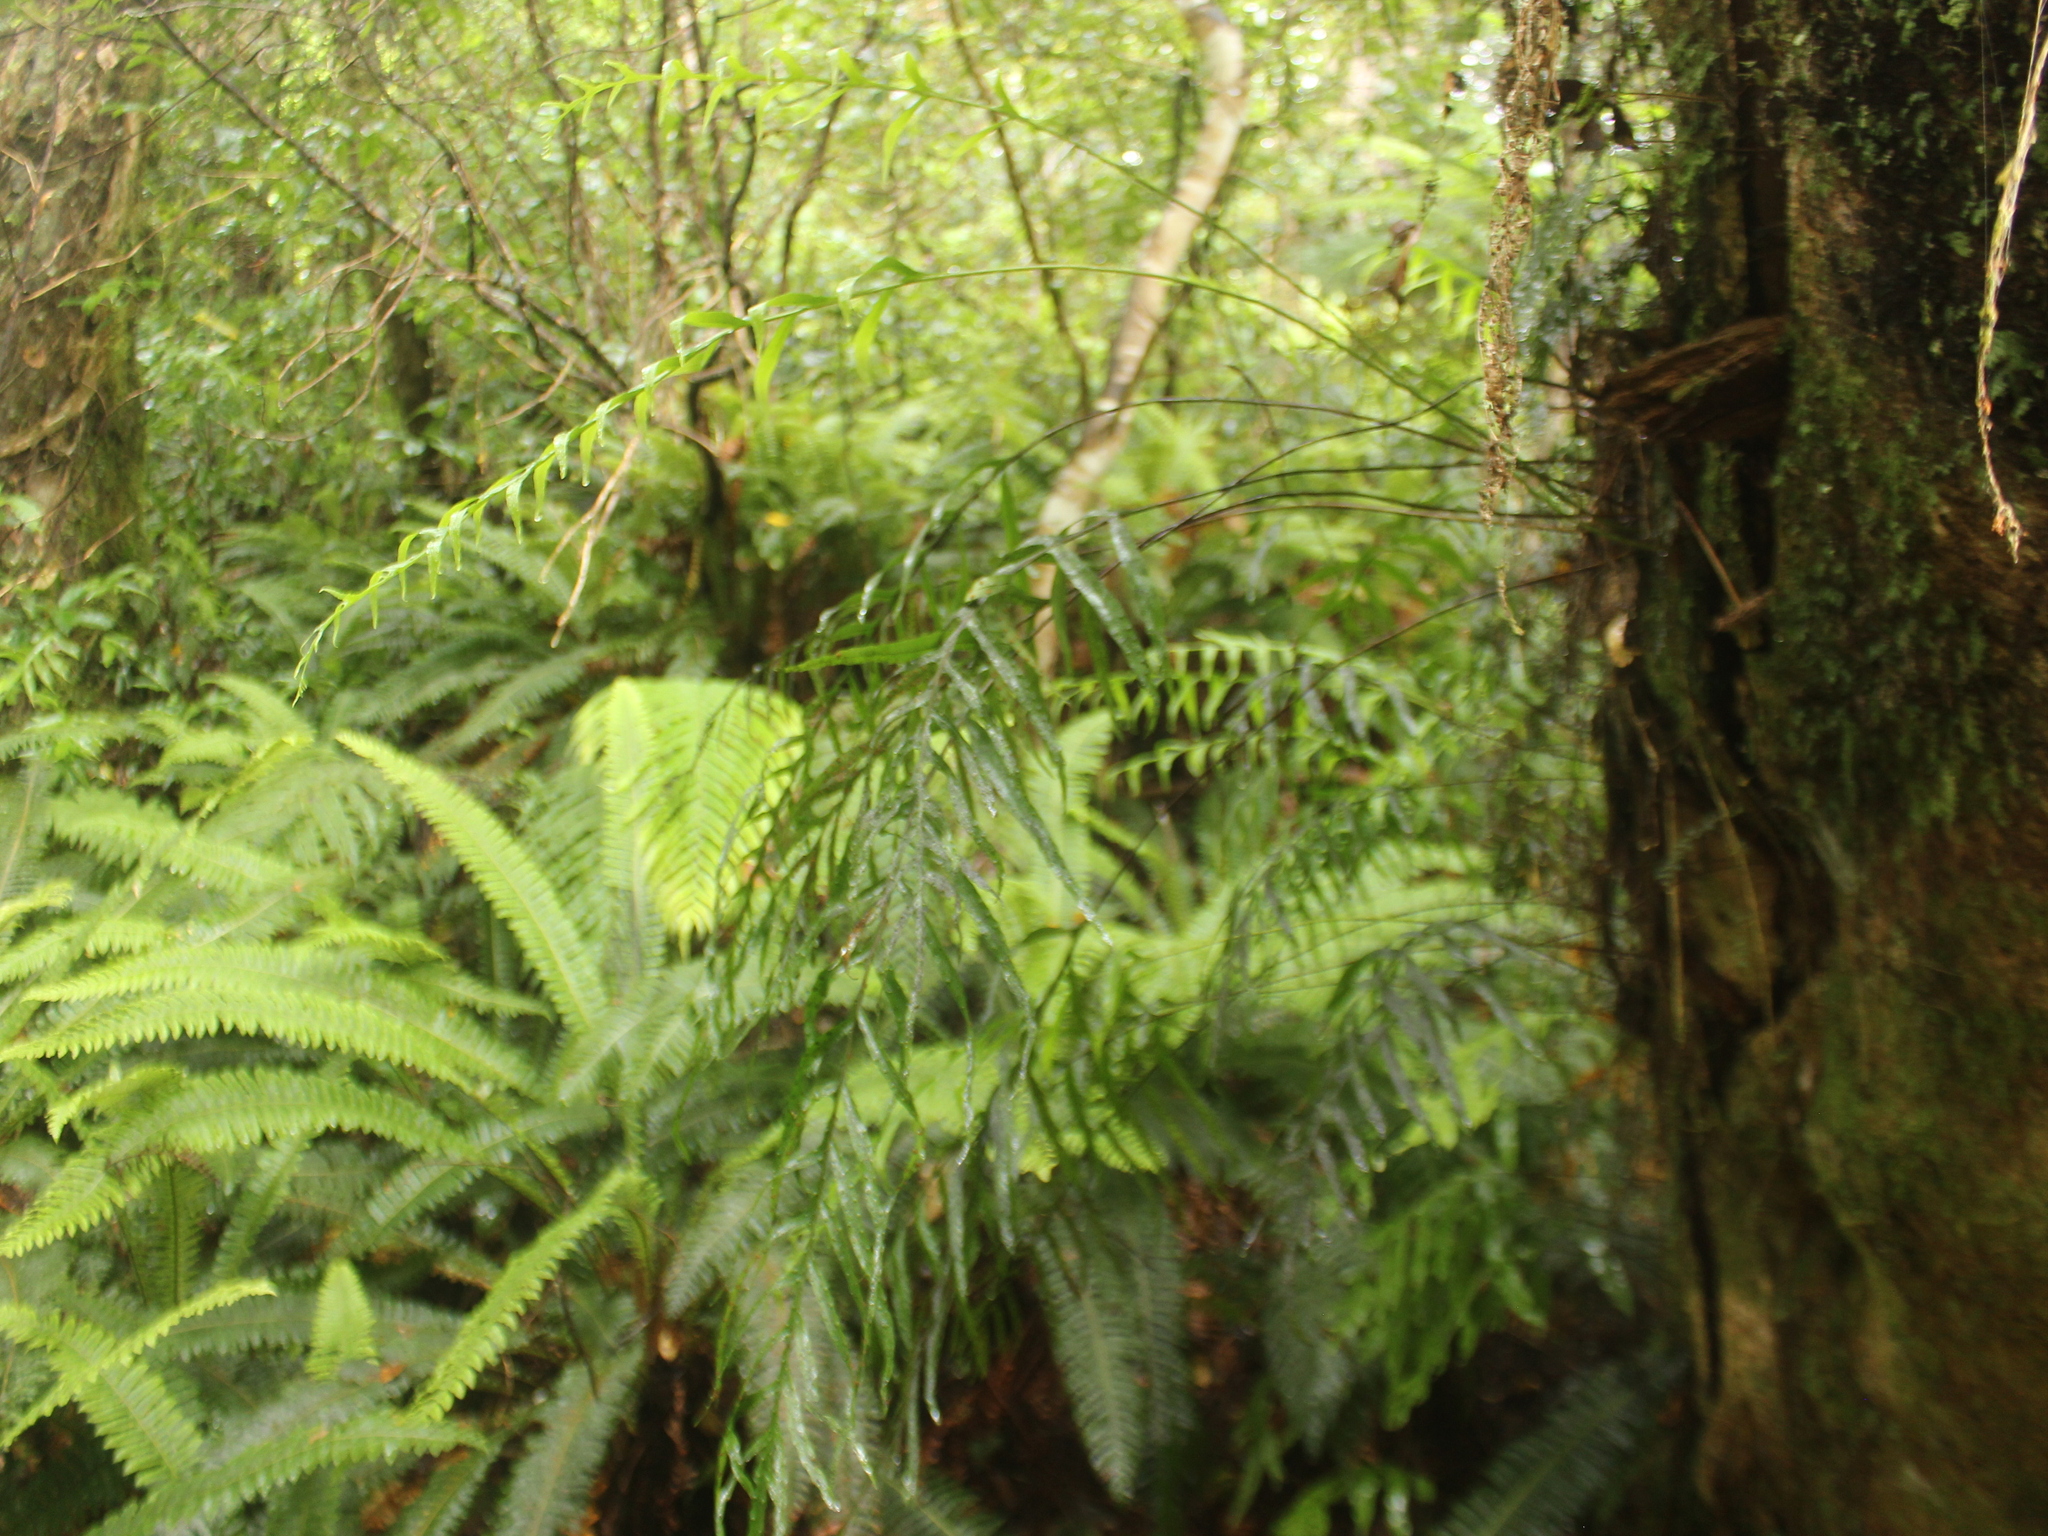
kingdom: Plantae
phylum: Tracheophyta
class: Polypodiopsida
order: Polypodiales
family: Polypodiaceae
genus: Lecanopteris
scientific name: Lecanopteris novae-zealandiae
